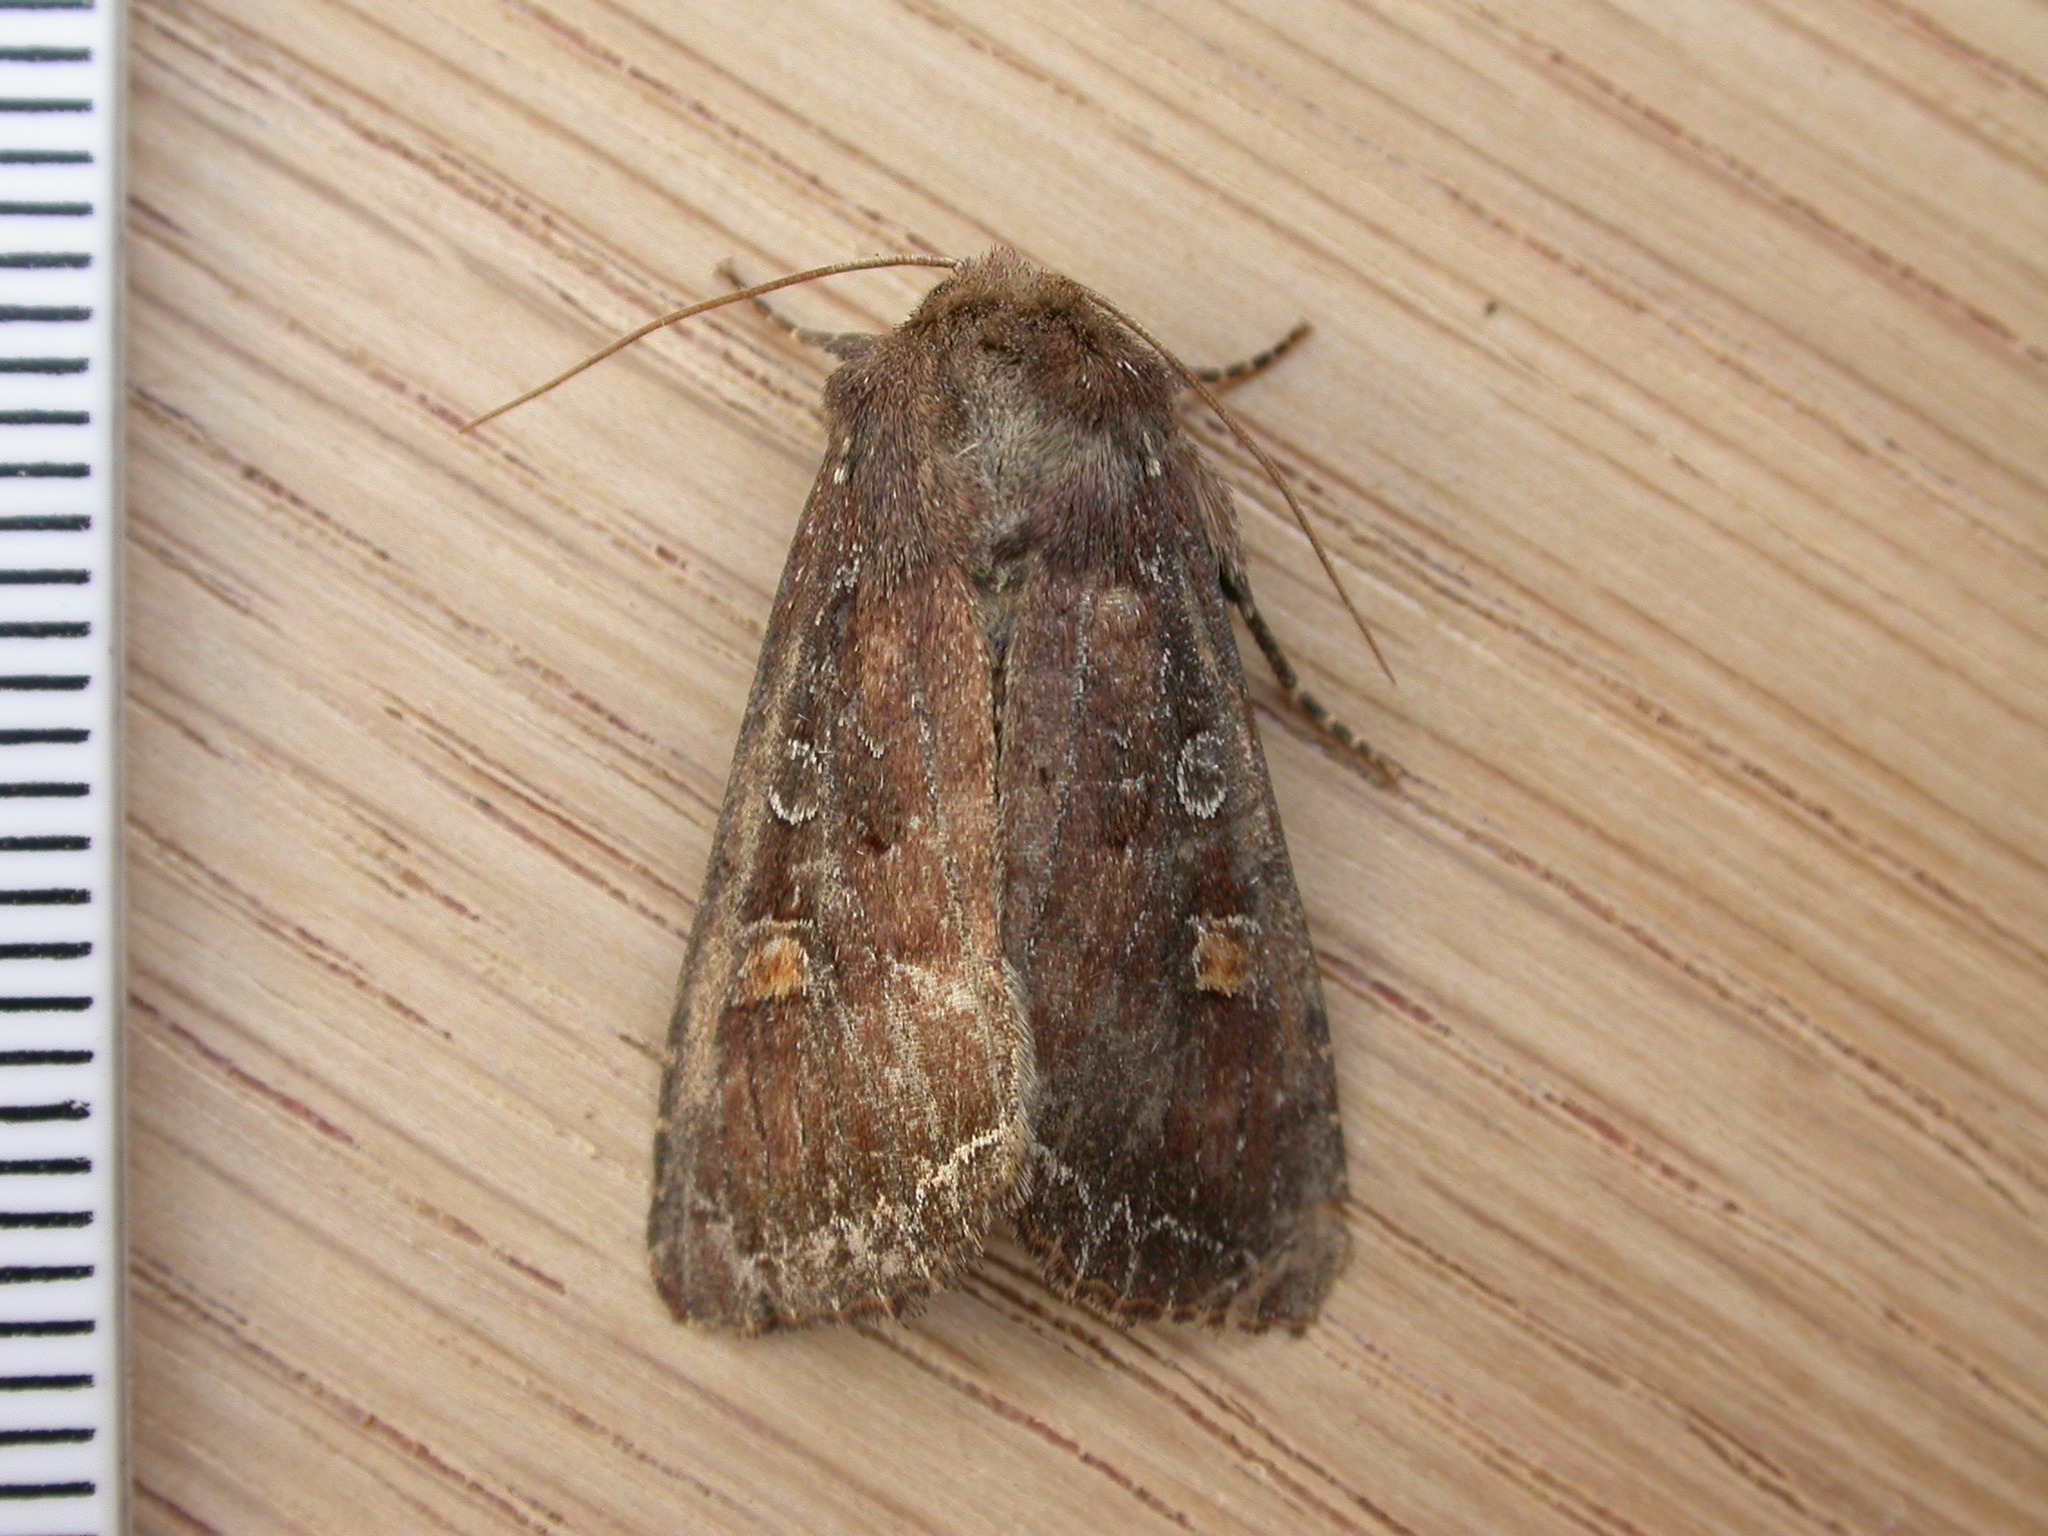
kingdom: Animalia
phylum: Arthropoda
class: Insecta
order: Lepidoptera
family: Noctuidae
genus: Lacanobia
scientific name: Lacanobia oleracea
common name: Bright-line brown-eye
